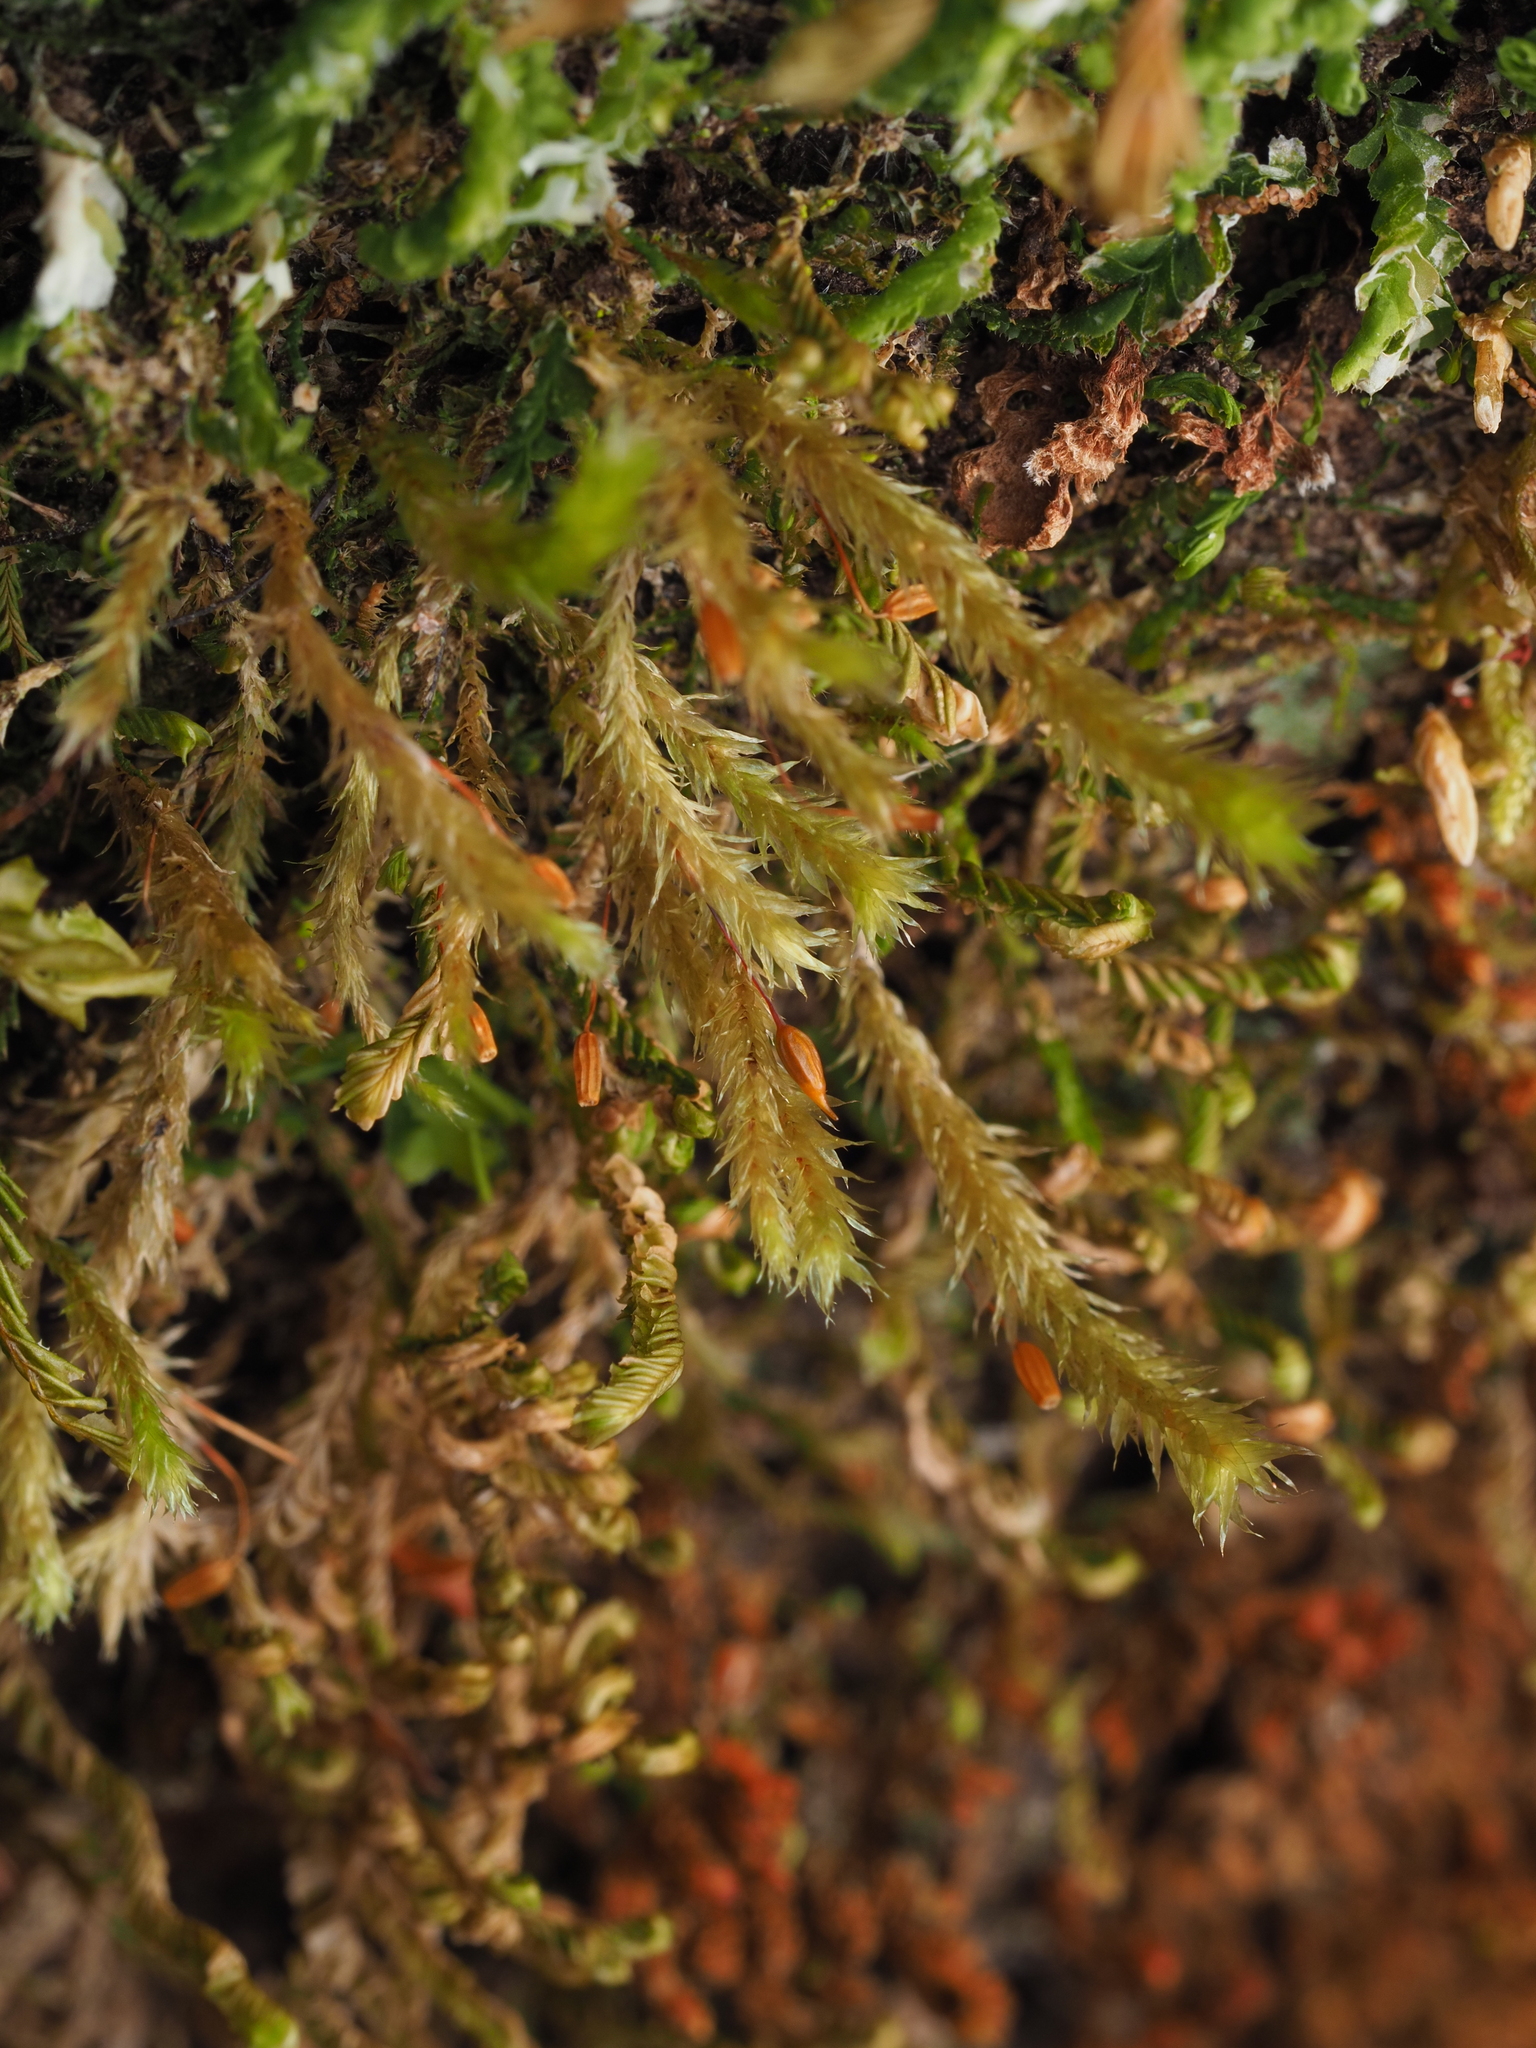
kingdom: Plantae
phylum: Bryophyta
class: Bryopsida
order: Ptychomniales
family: Ptychomniaceae
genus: Glyphothecium
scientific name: Glyphothecium sciuroides
